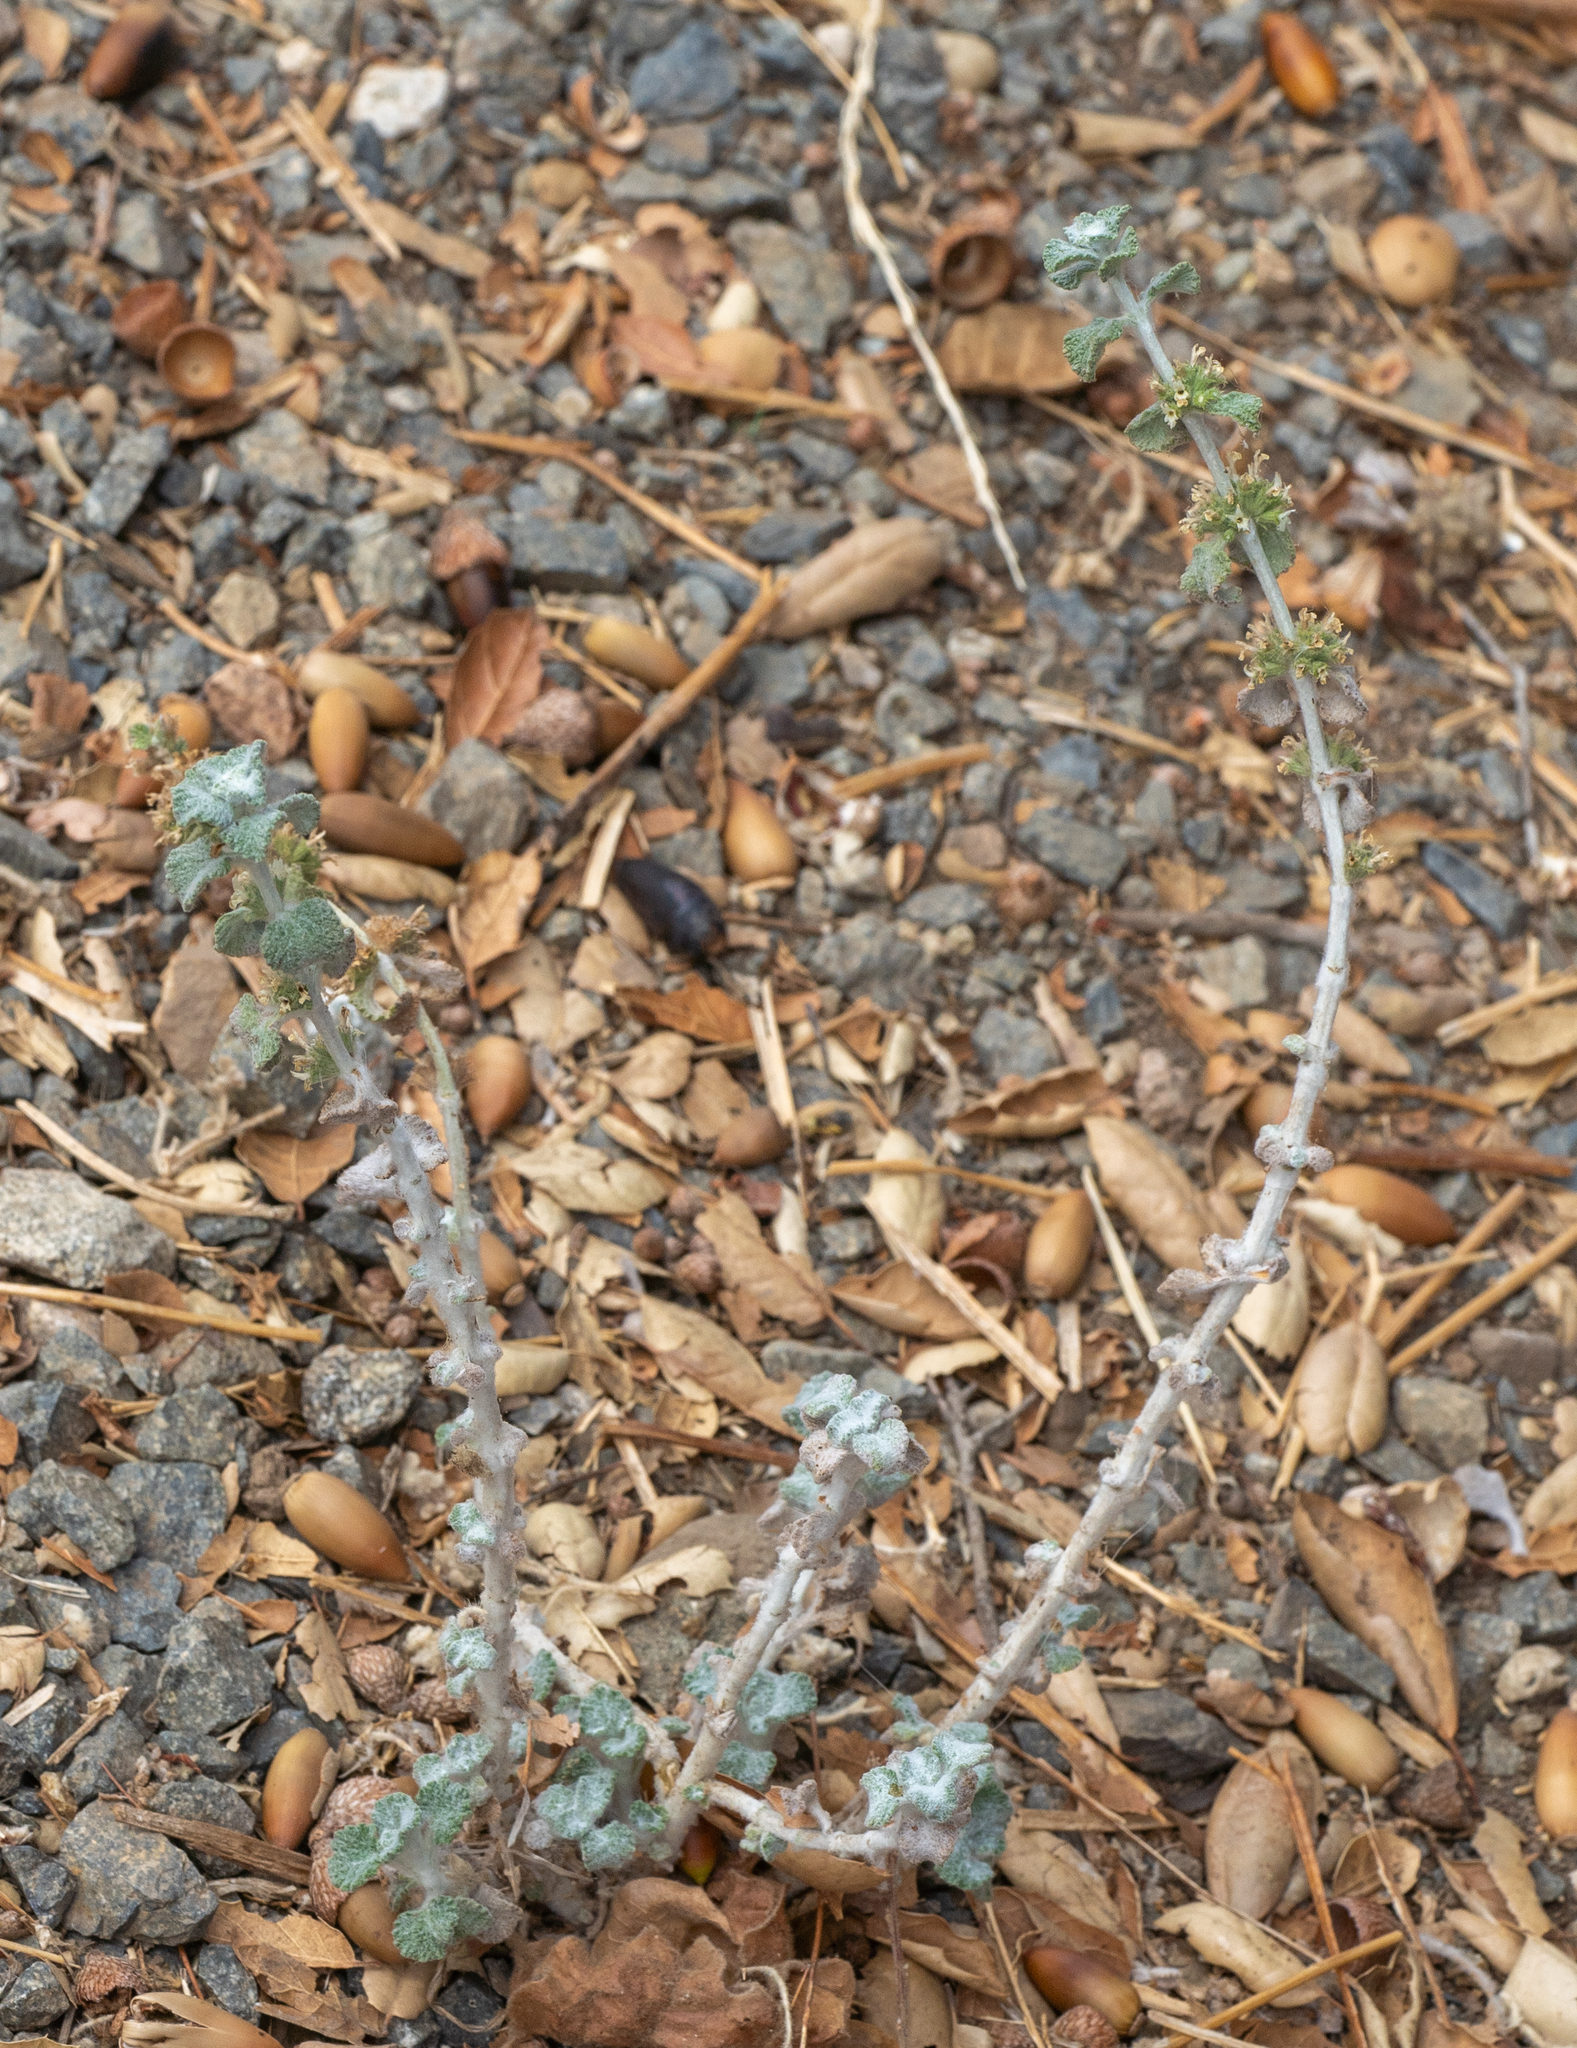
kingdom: Plantae
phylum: Tracheophyta
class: Magnoliopsida
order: Lamiales
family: Lamiaceae
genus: Marrubium
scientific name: Marrubium vulgare
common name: Horehound
